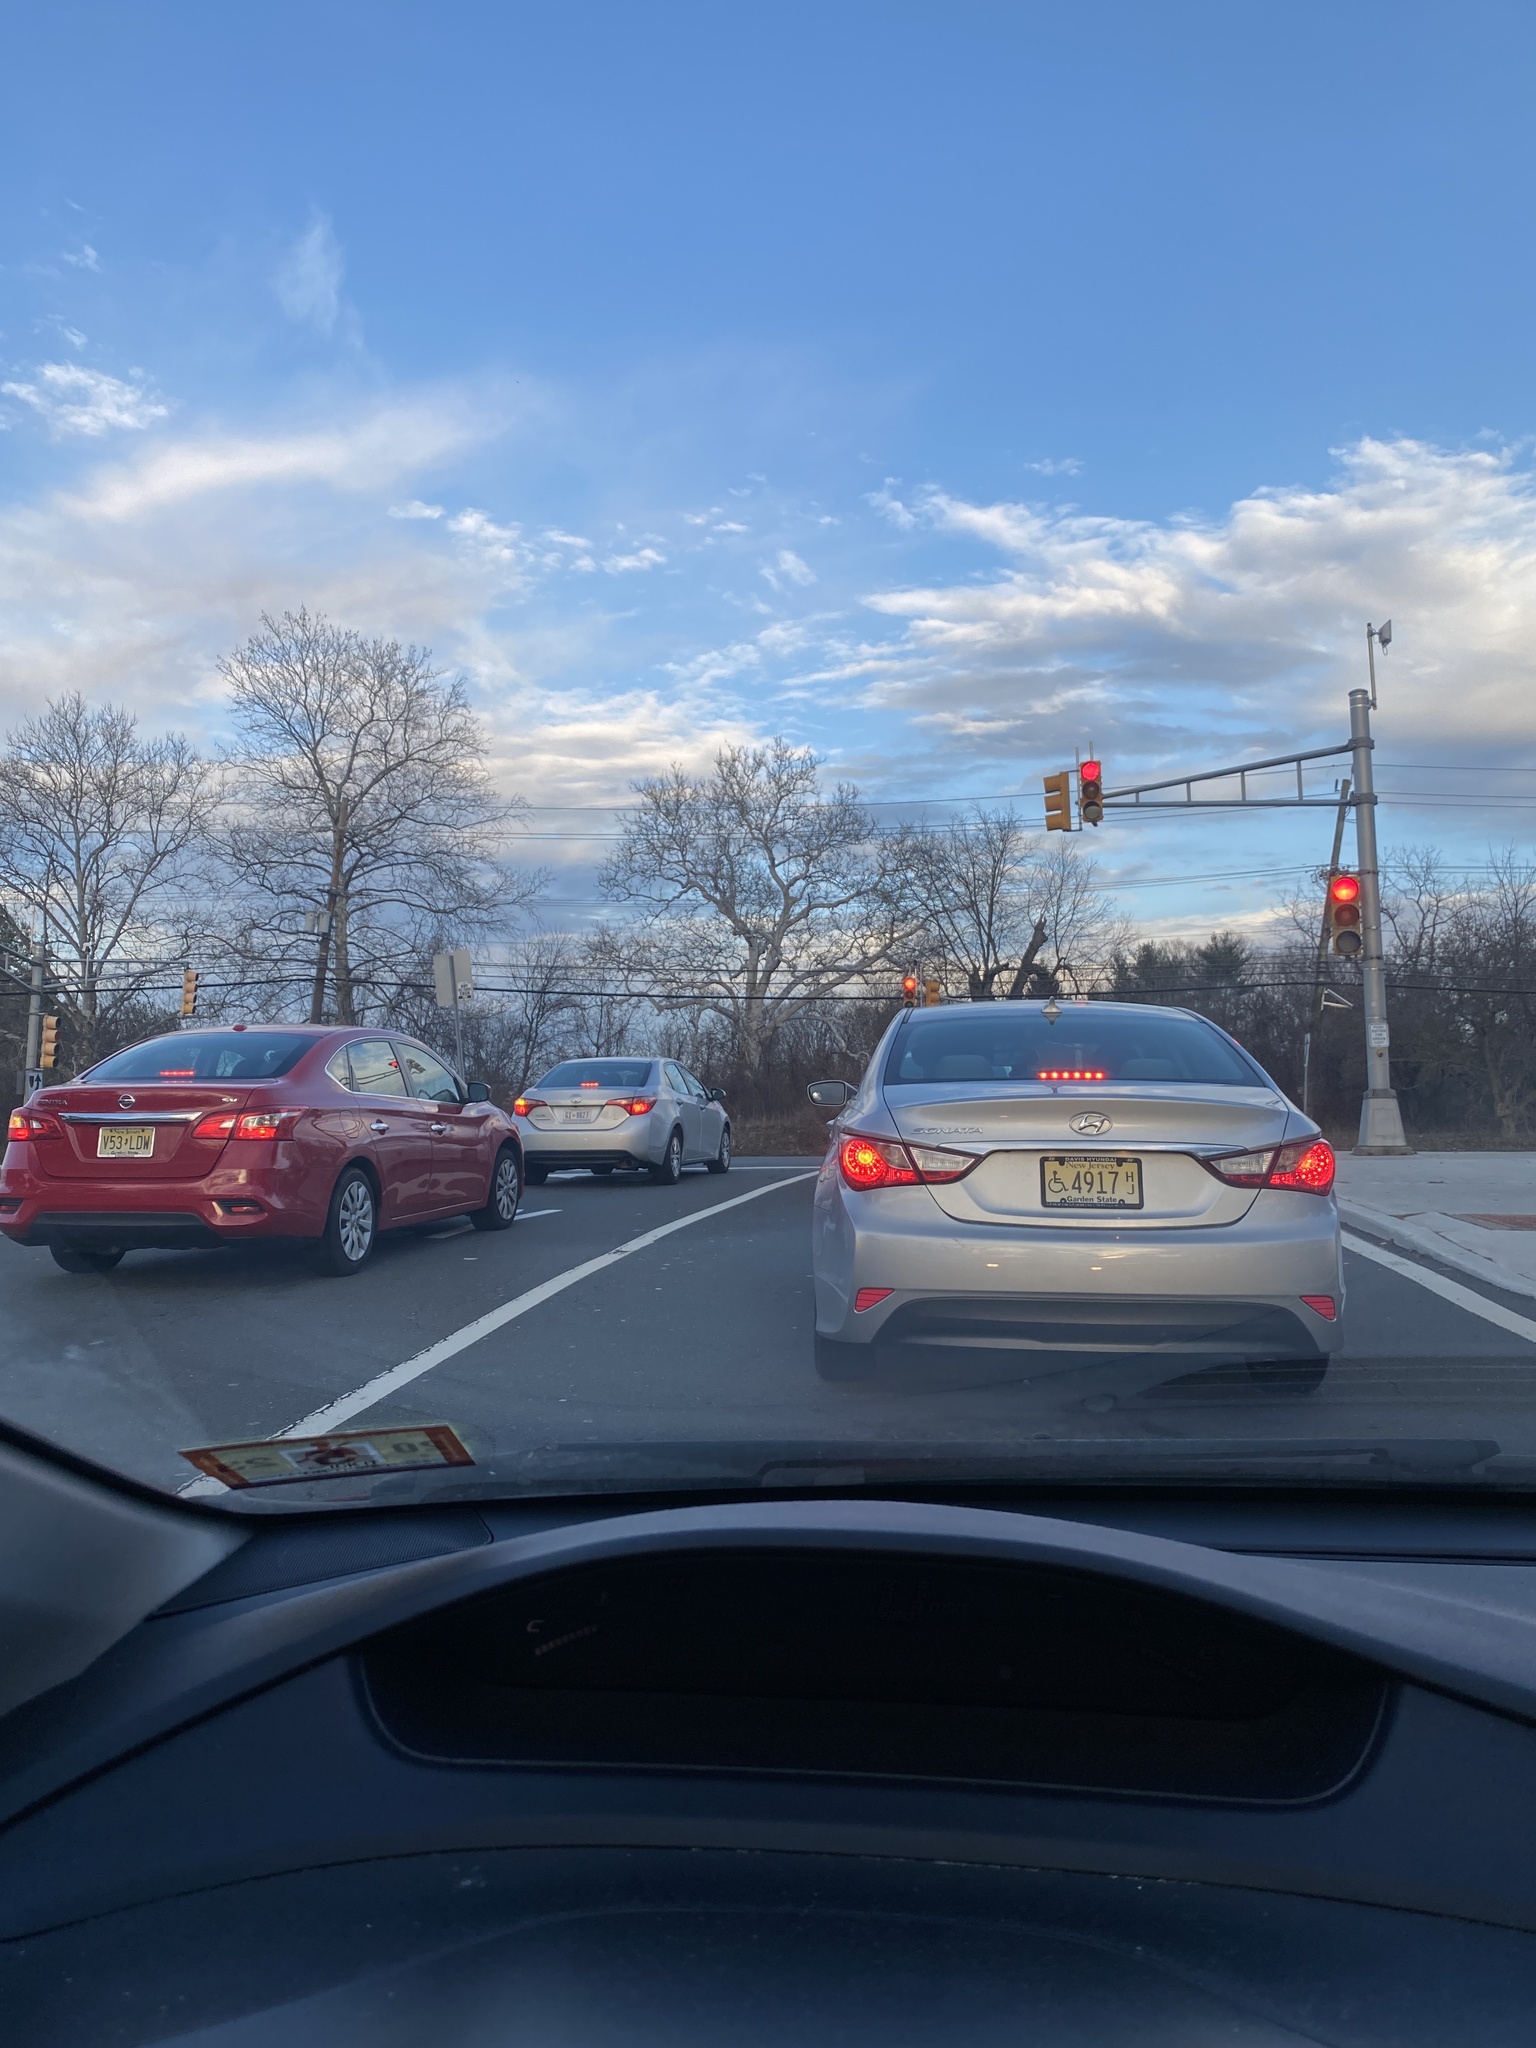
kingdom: Plantae
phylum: Tracheophyta
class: Magnoliopsida
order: Proteales
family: Platanaceae
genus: Platanus
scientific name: Platanus occidentalis
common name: American sycamore
